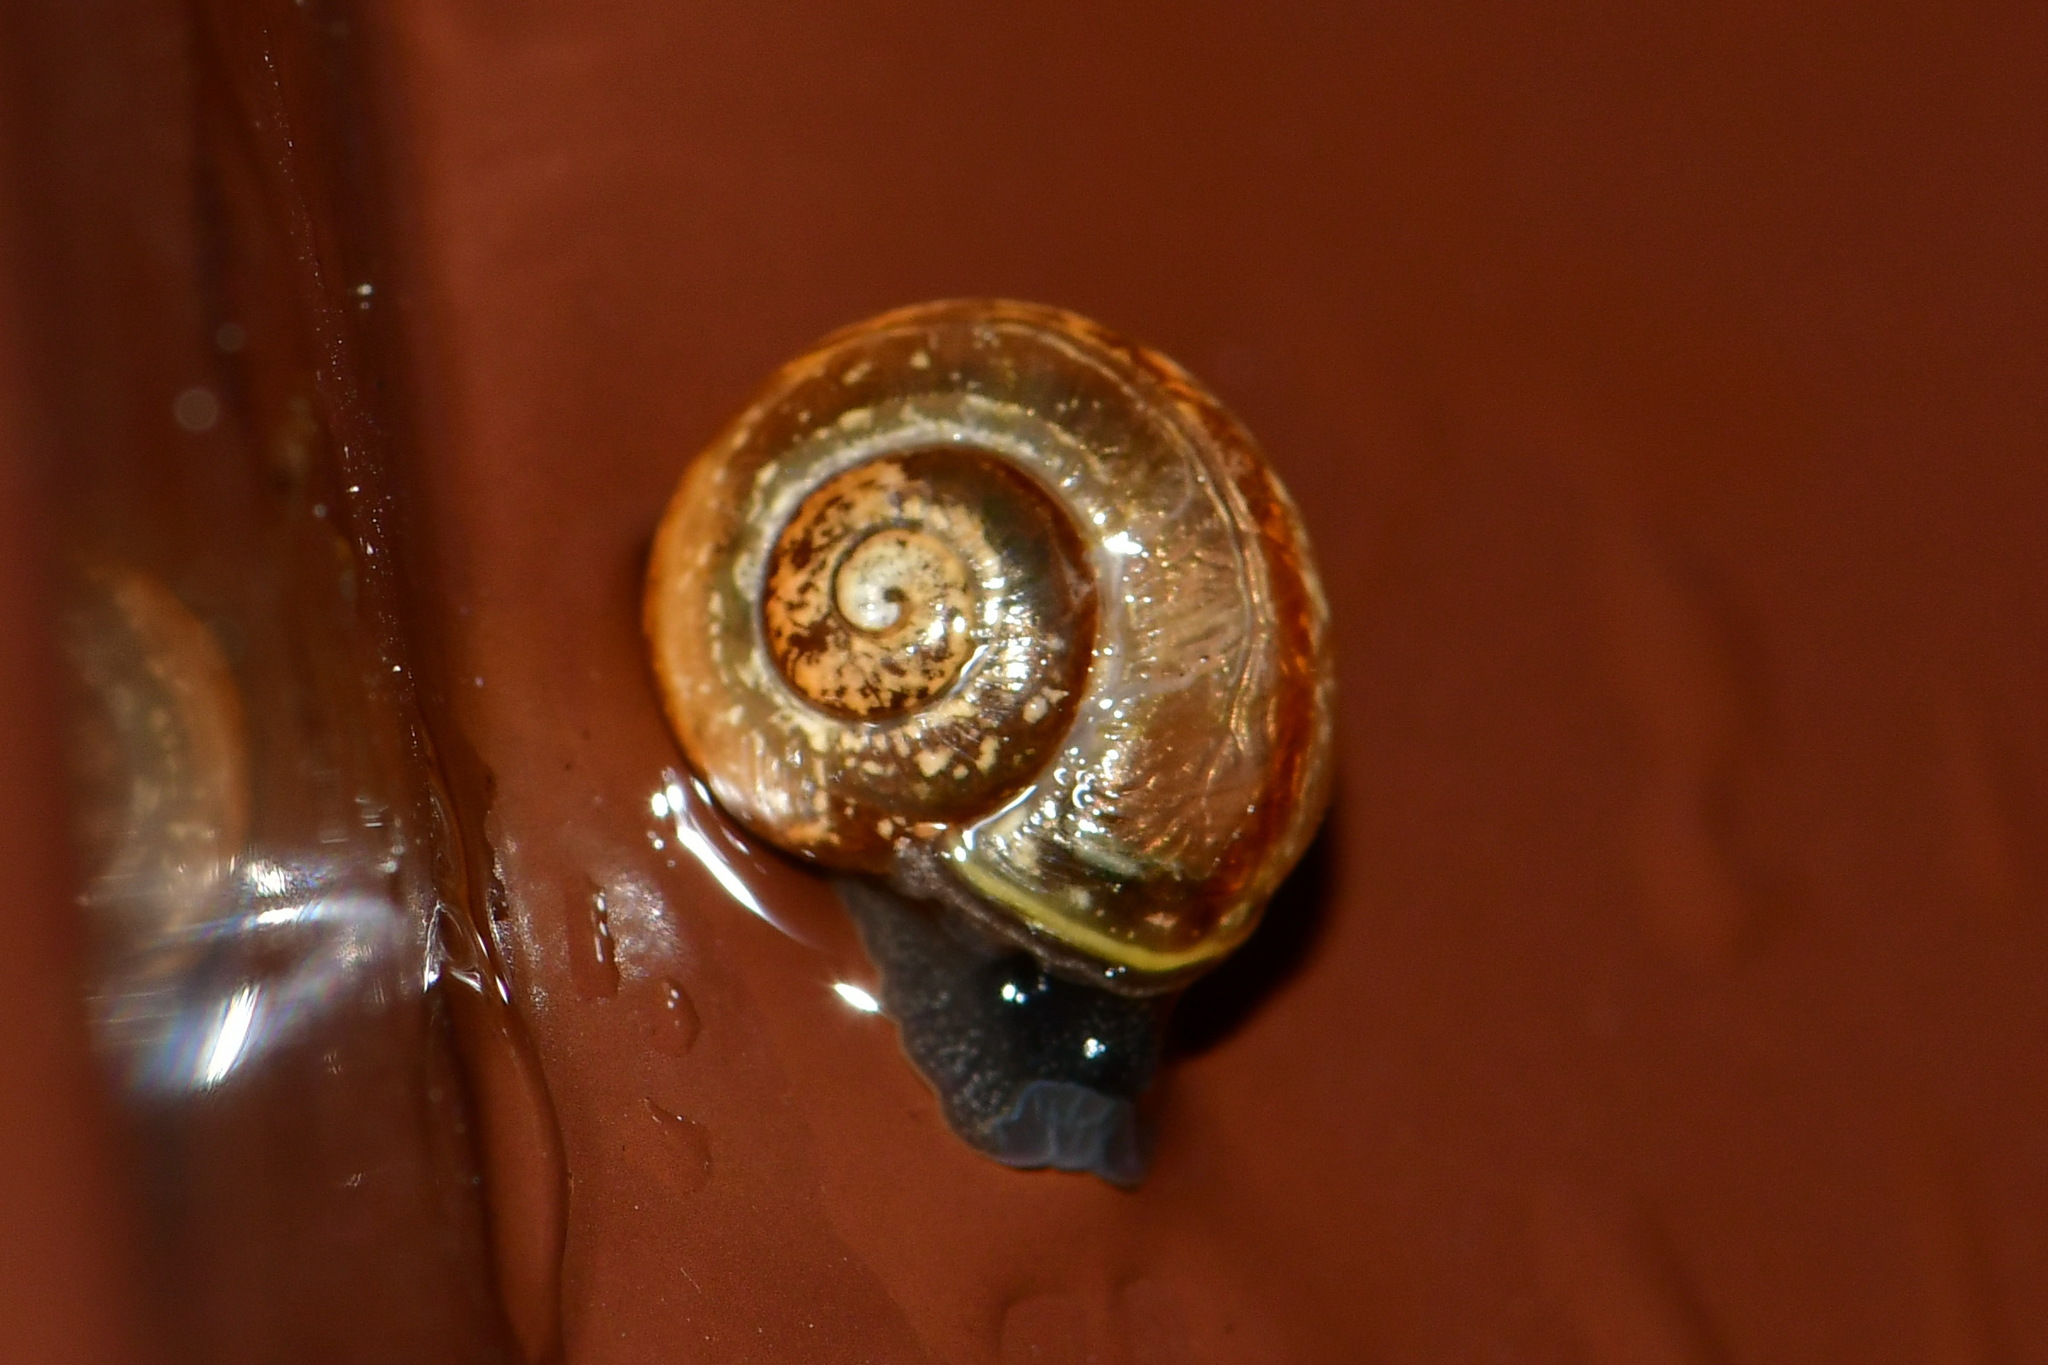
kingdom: Animalia
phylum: Mollusca
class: Gastropoda
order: Stylommatophora
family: Helicidae
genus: Arianta
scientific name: Arianta arbustorum
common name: Copse snail
